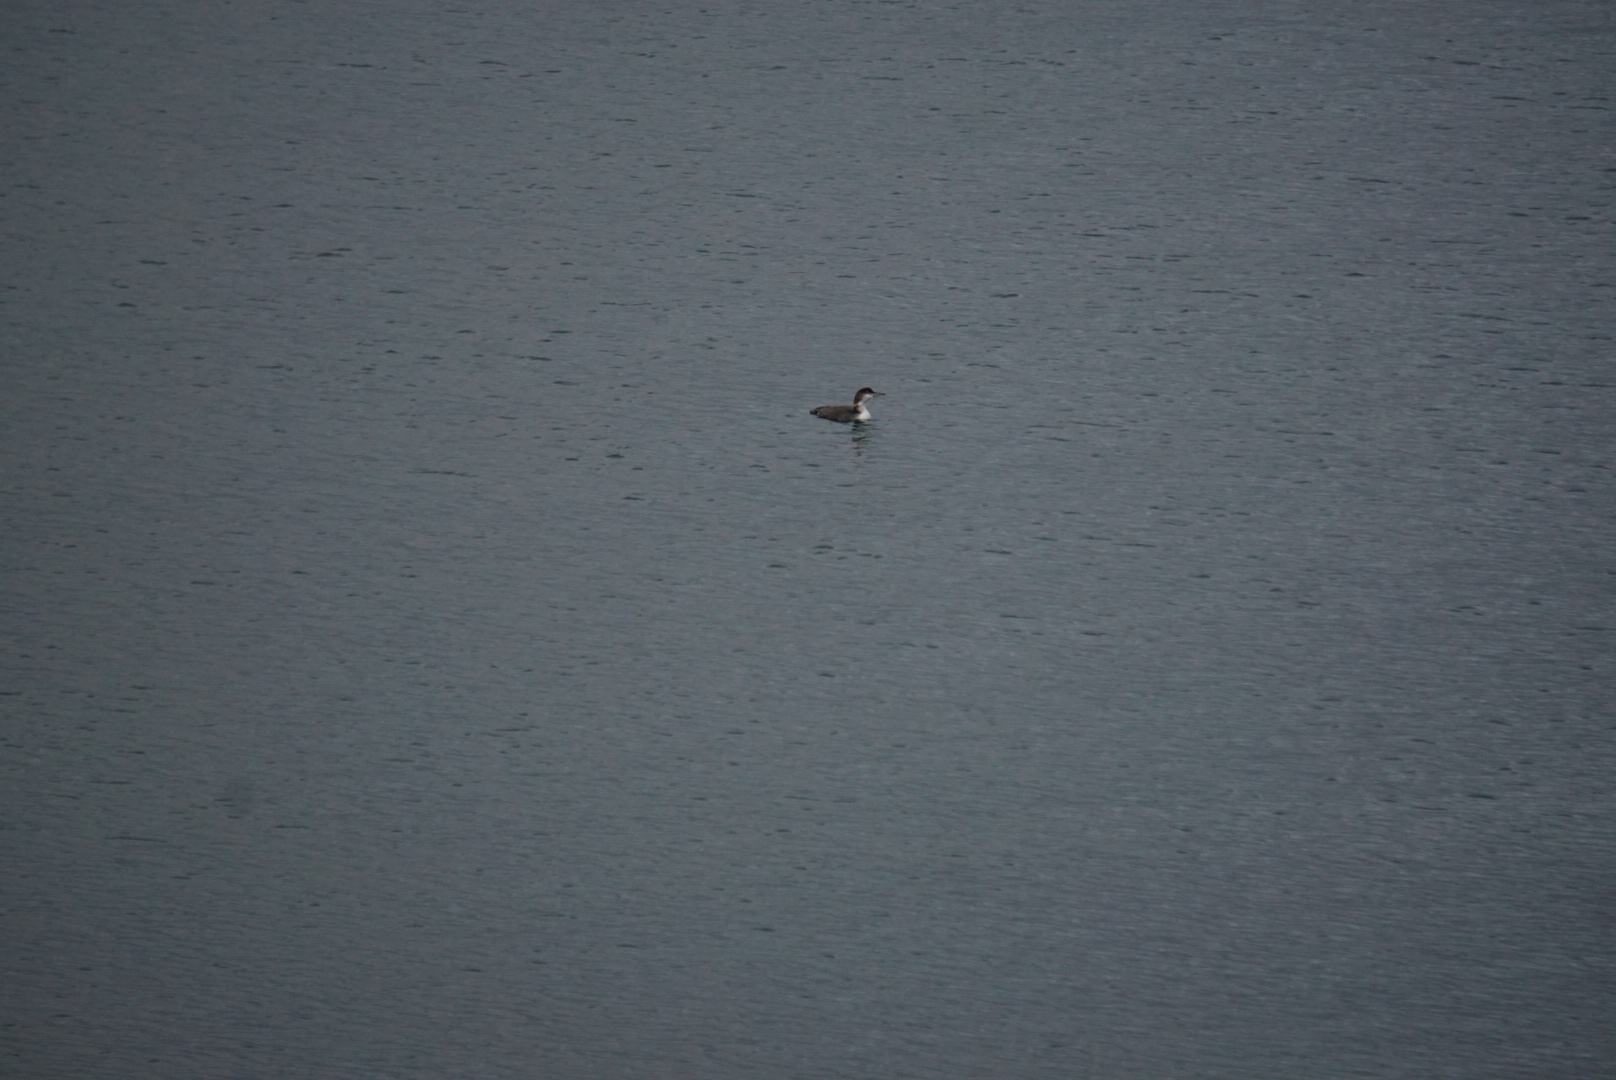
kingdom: Animalia
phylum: Chordata
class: Aves
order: Gaviiformes
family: Gaviidae
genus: Gavia
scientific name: Gavia immer
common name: Common loon
